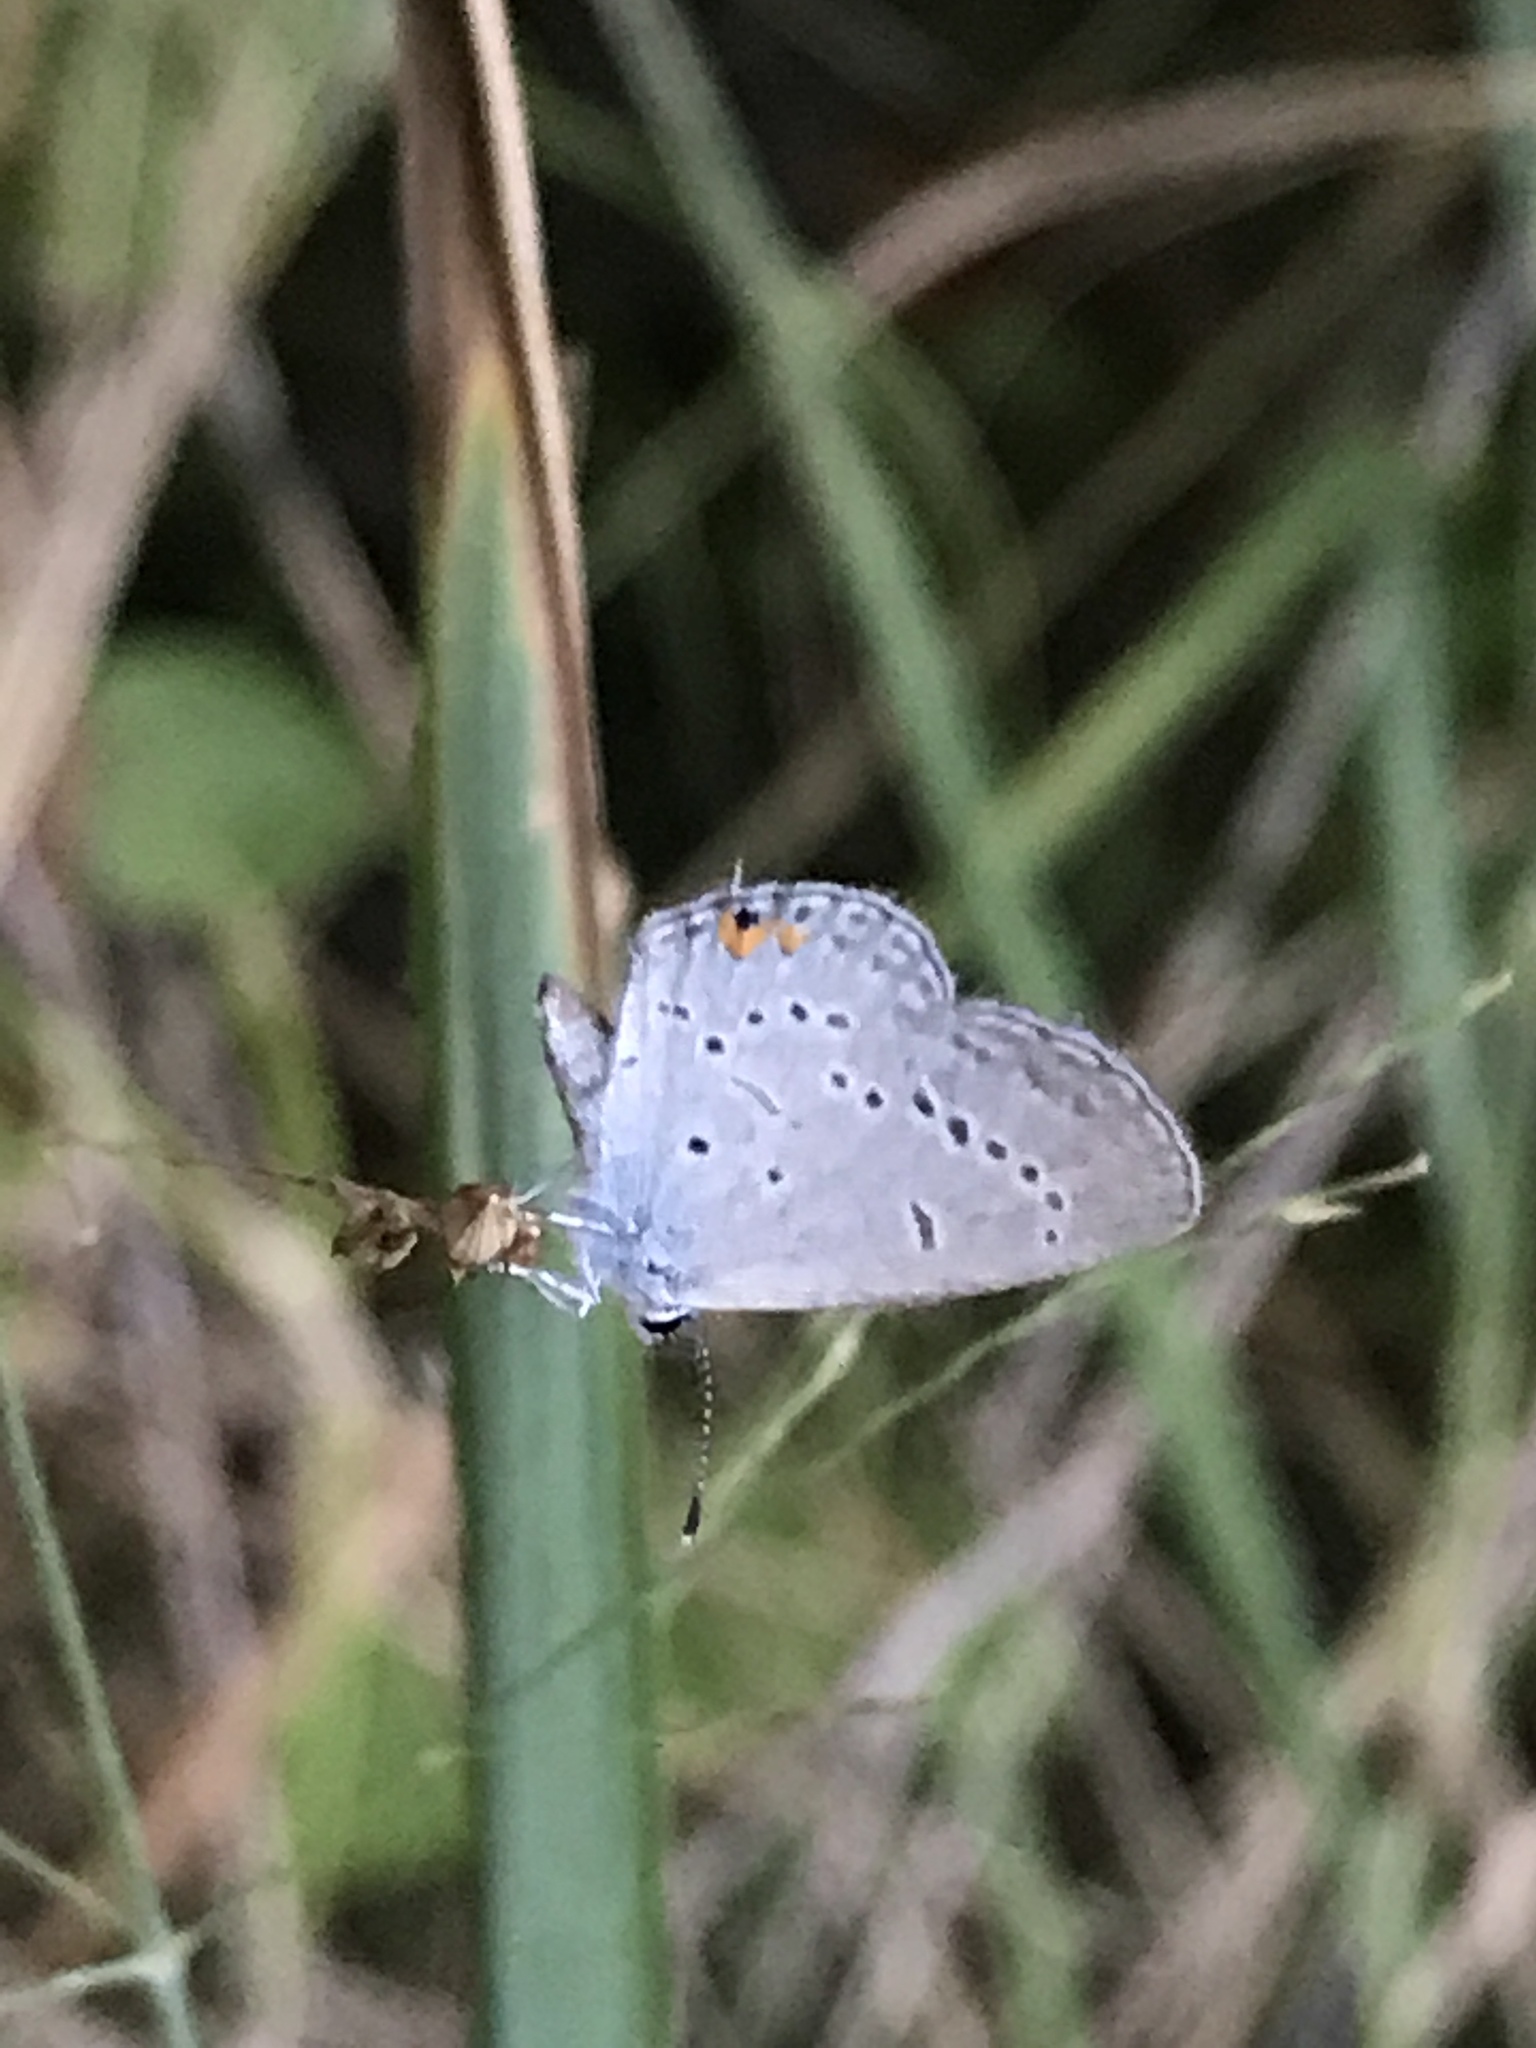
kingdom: Animalia
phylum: Arthropoda
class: Insecta
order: Lepidoptera
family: Lycaenidae
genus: Elkalyce
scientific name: Elkalyce comyntas
